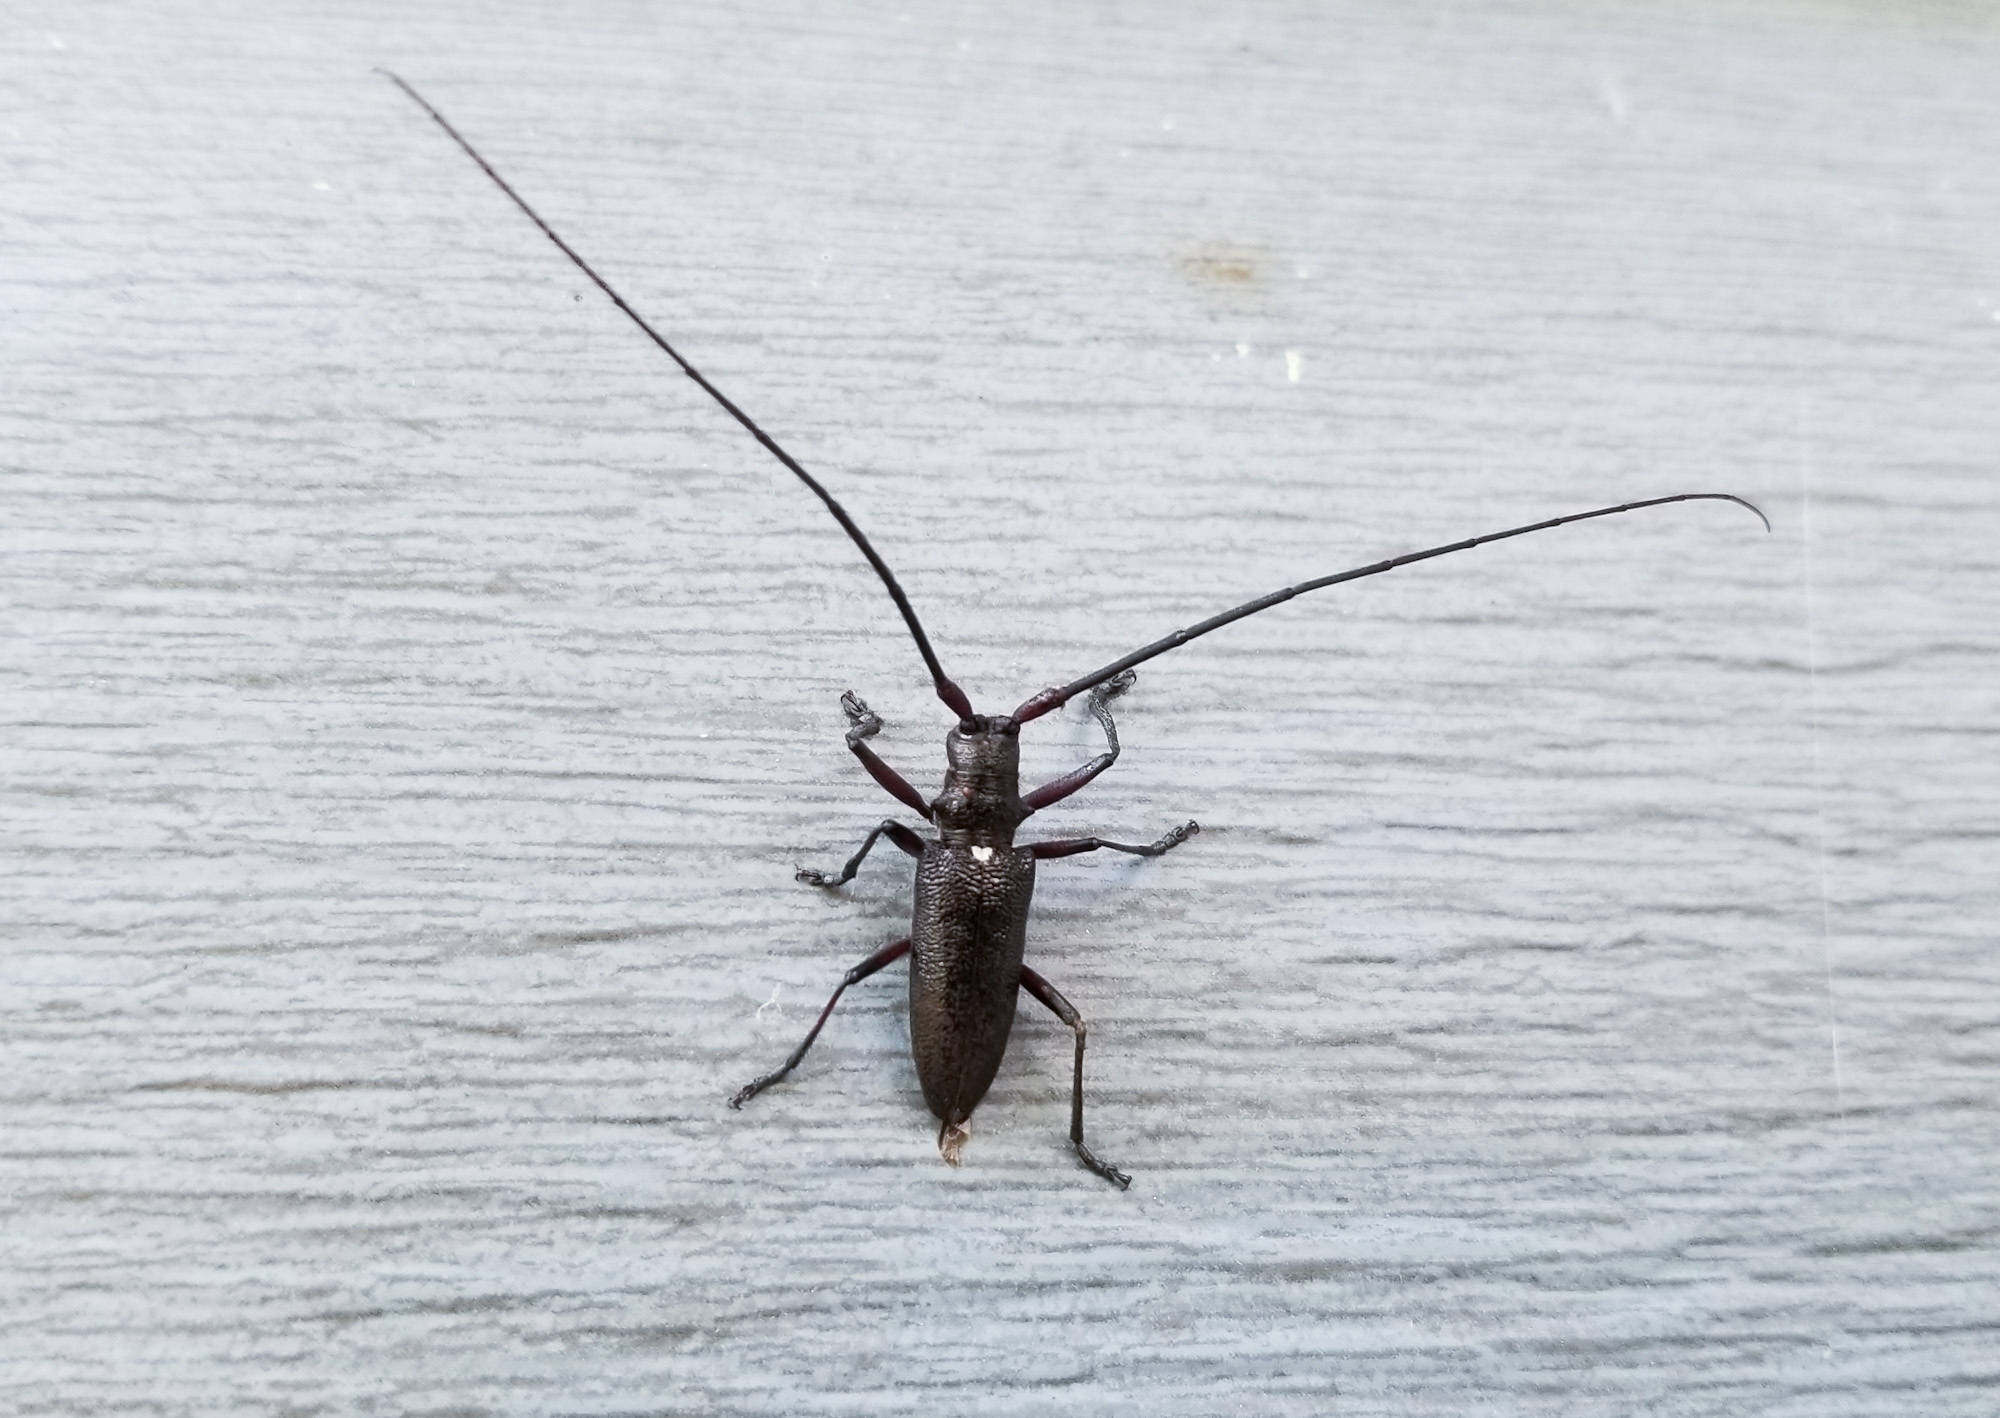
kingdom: Animalia
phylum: Arthropoda
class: Insecta
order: Coleoptera
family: Cerambycidae
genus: Monochamus
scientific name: Monochamus scutellatus
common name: White-spotted sawyer beetle
